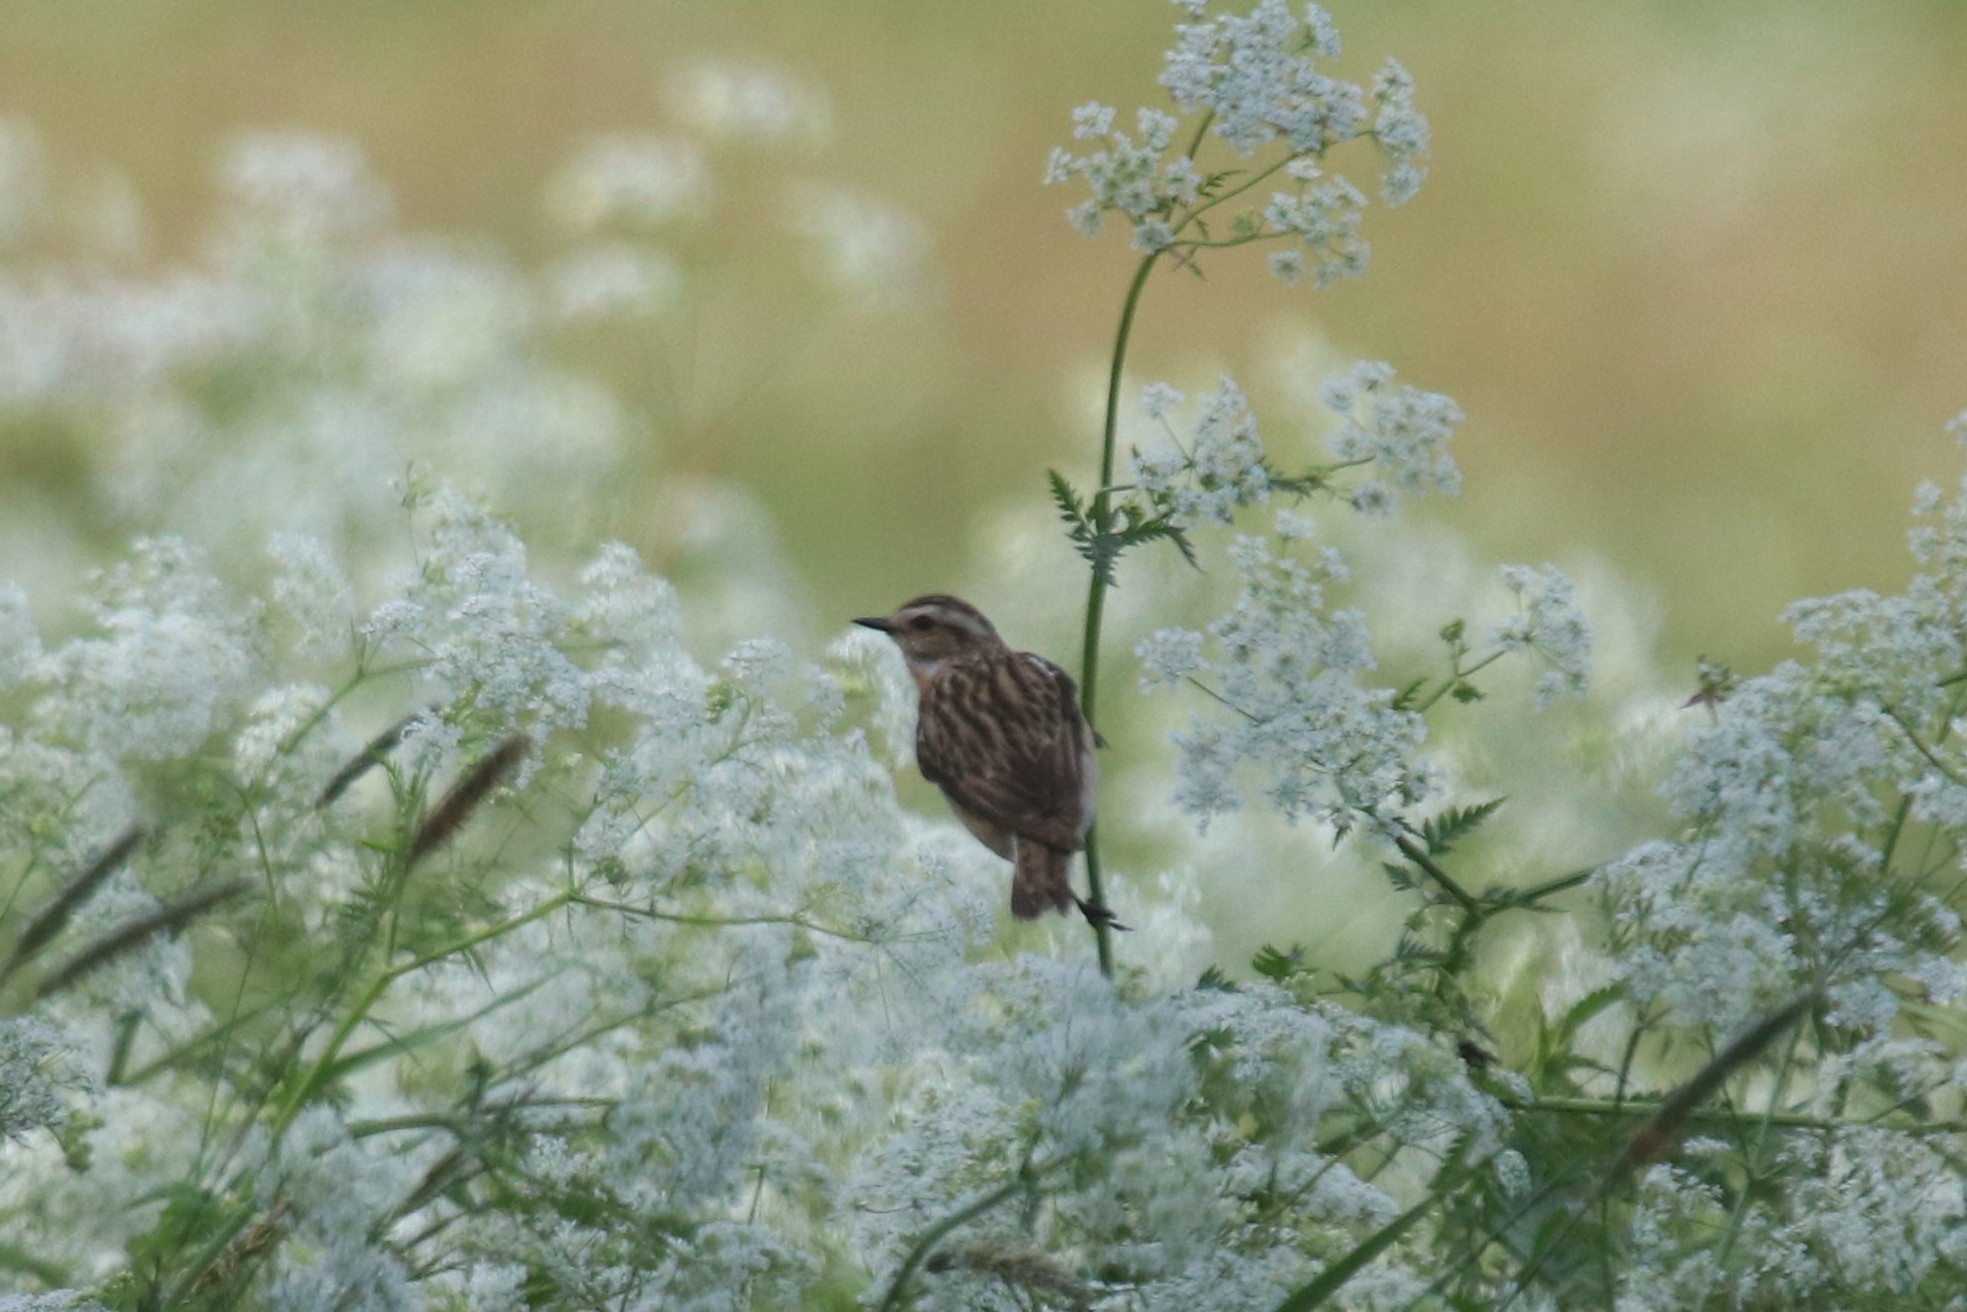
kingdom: Animalia
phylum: Chordata
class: Aves
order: Passeriformes
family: Muscicapidae
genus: Saxicola
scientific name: Saxicola rubetra
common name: Whinchat
